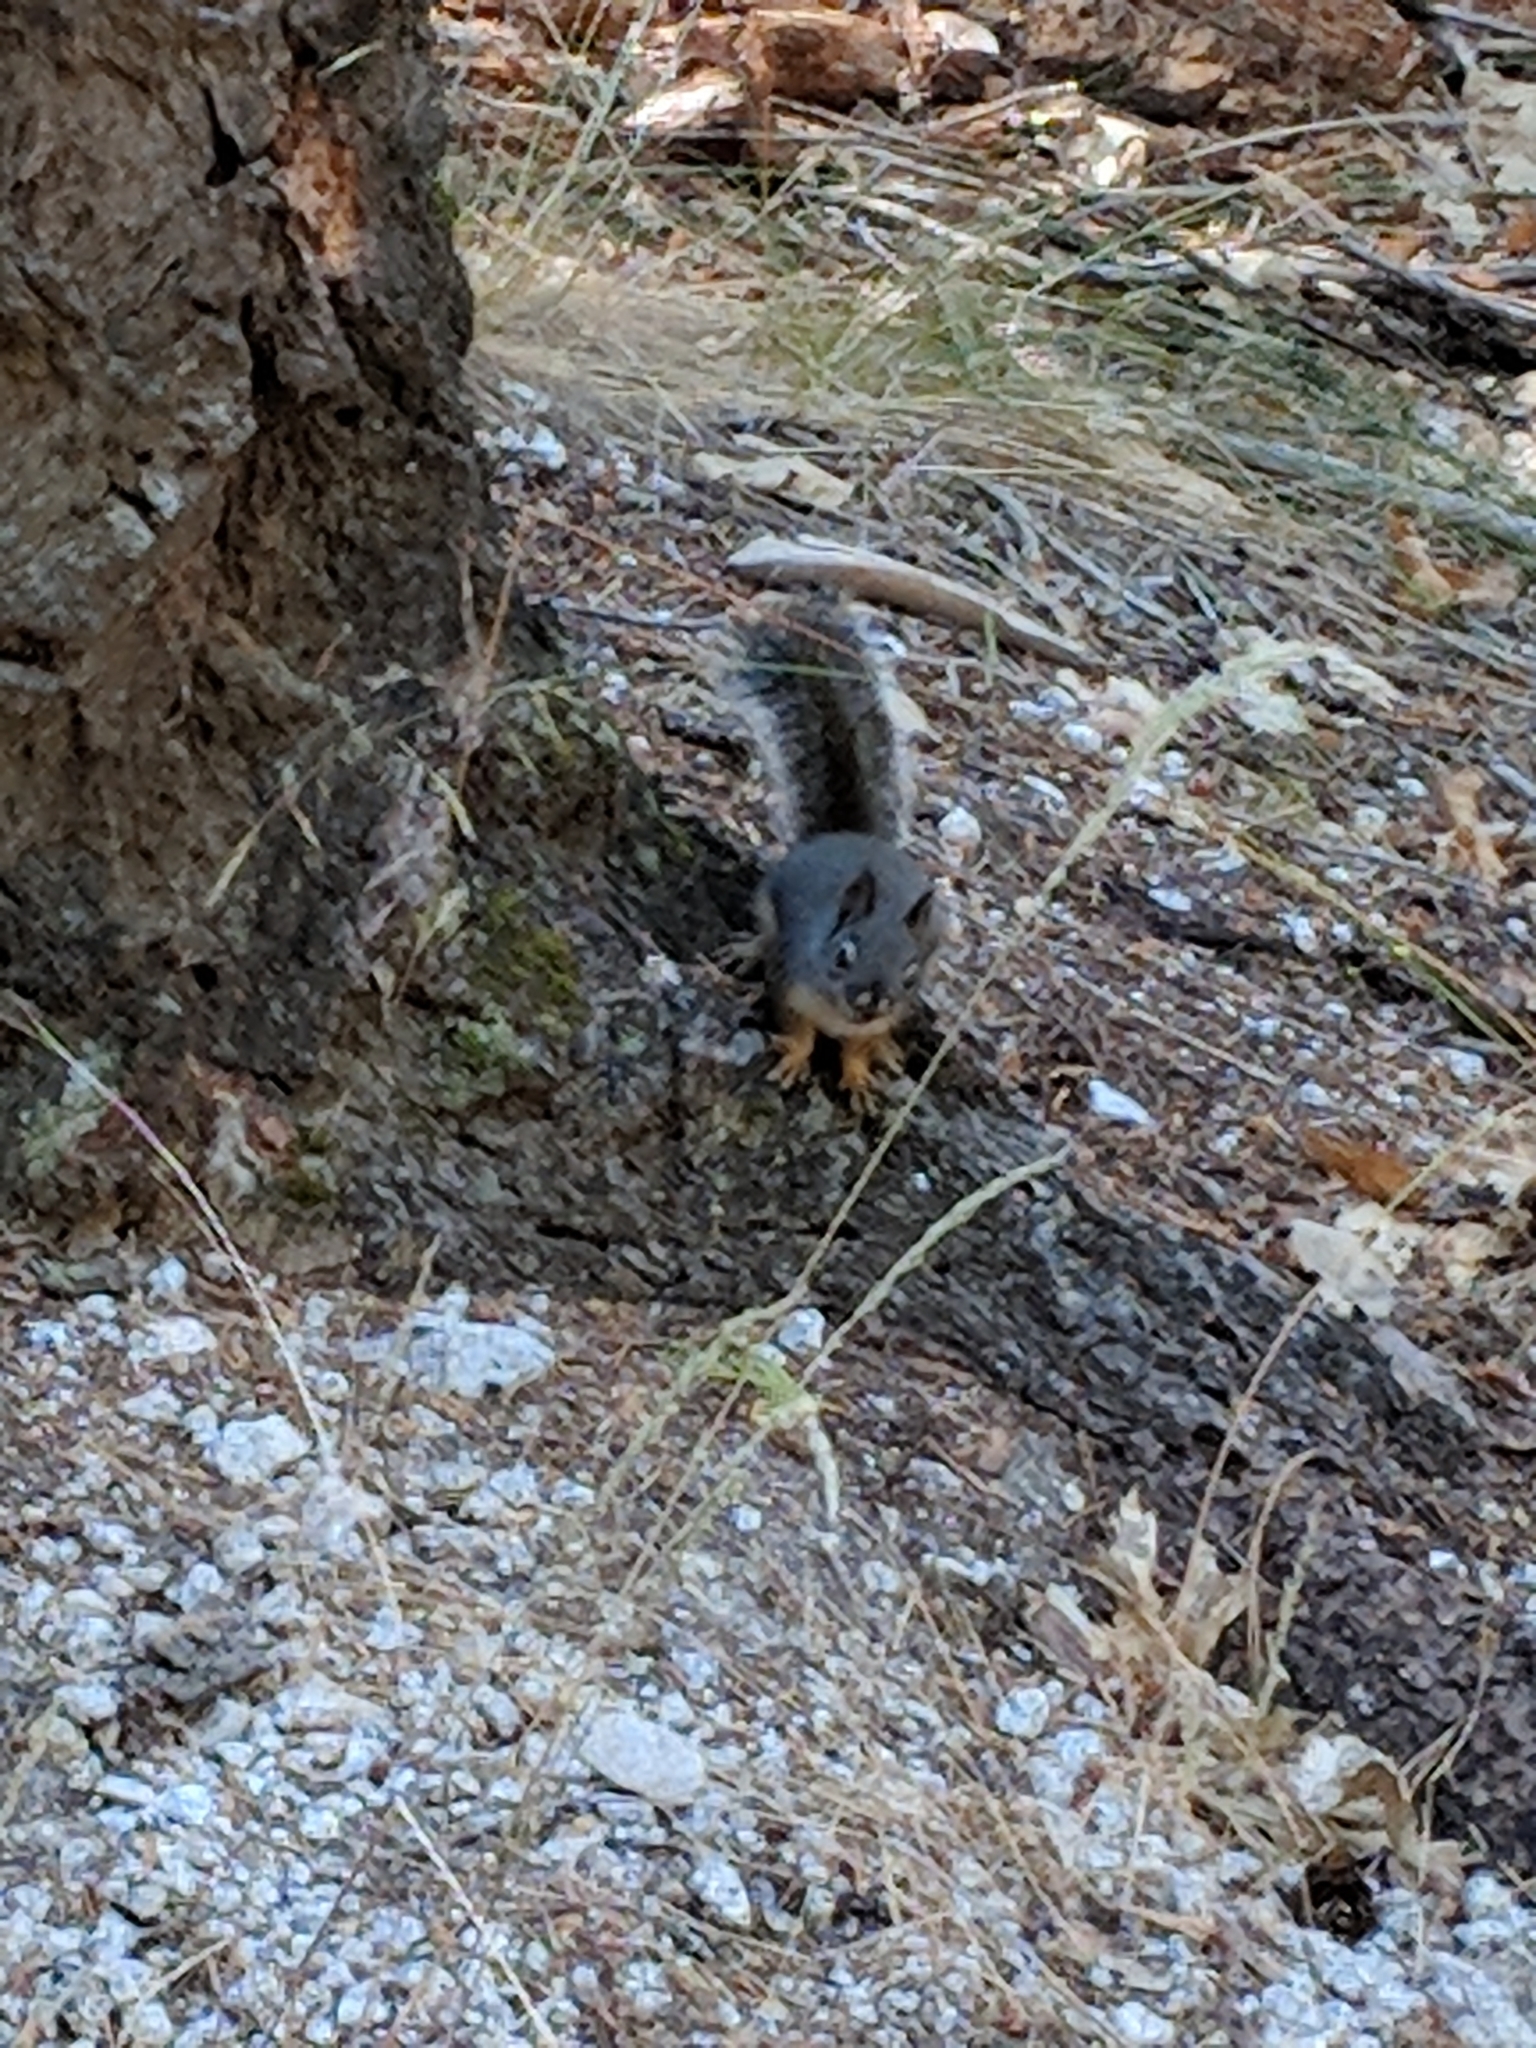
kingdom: Animalia
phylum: Chordata
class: Mammalia
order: Rodentia
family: Sciuridae
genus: Tamiasciurus
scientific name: Tamiasciurus douglasii
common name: Douglas's squirrel
